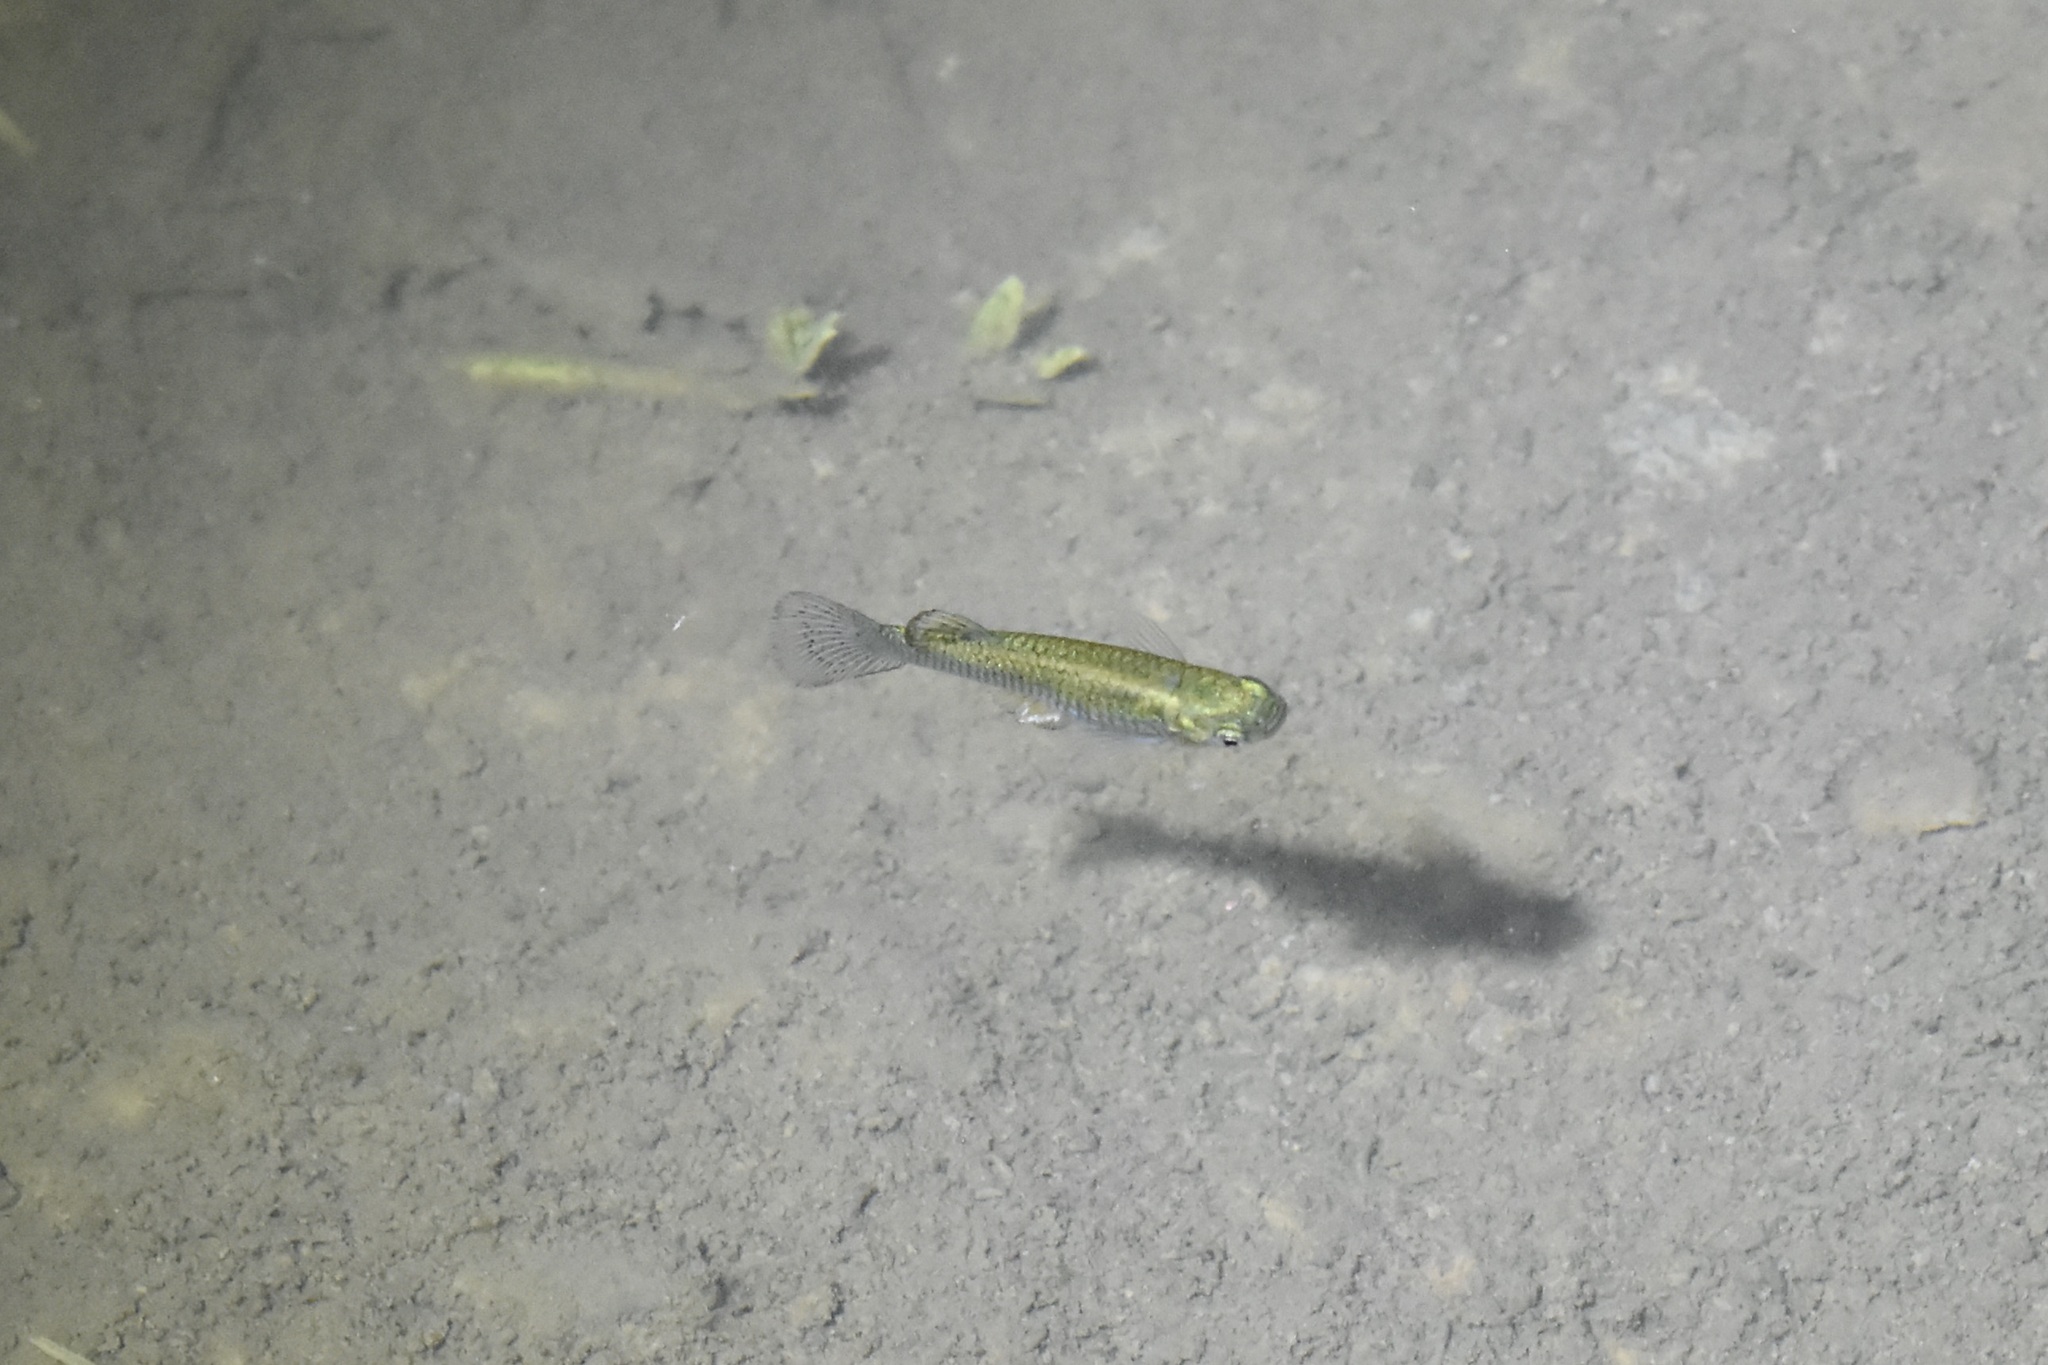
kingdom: Animalia
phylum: Chordata
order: Cyprinodontiformes
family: Poeciliidae
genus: Gambusia
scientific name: Gambusia affinis
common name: Mosquitofish
